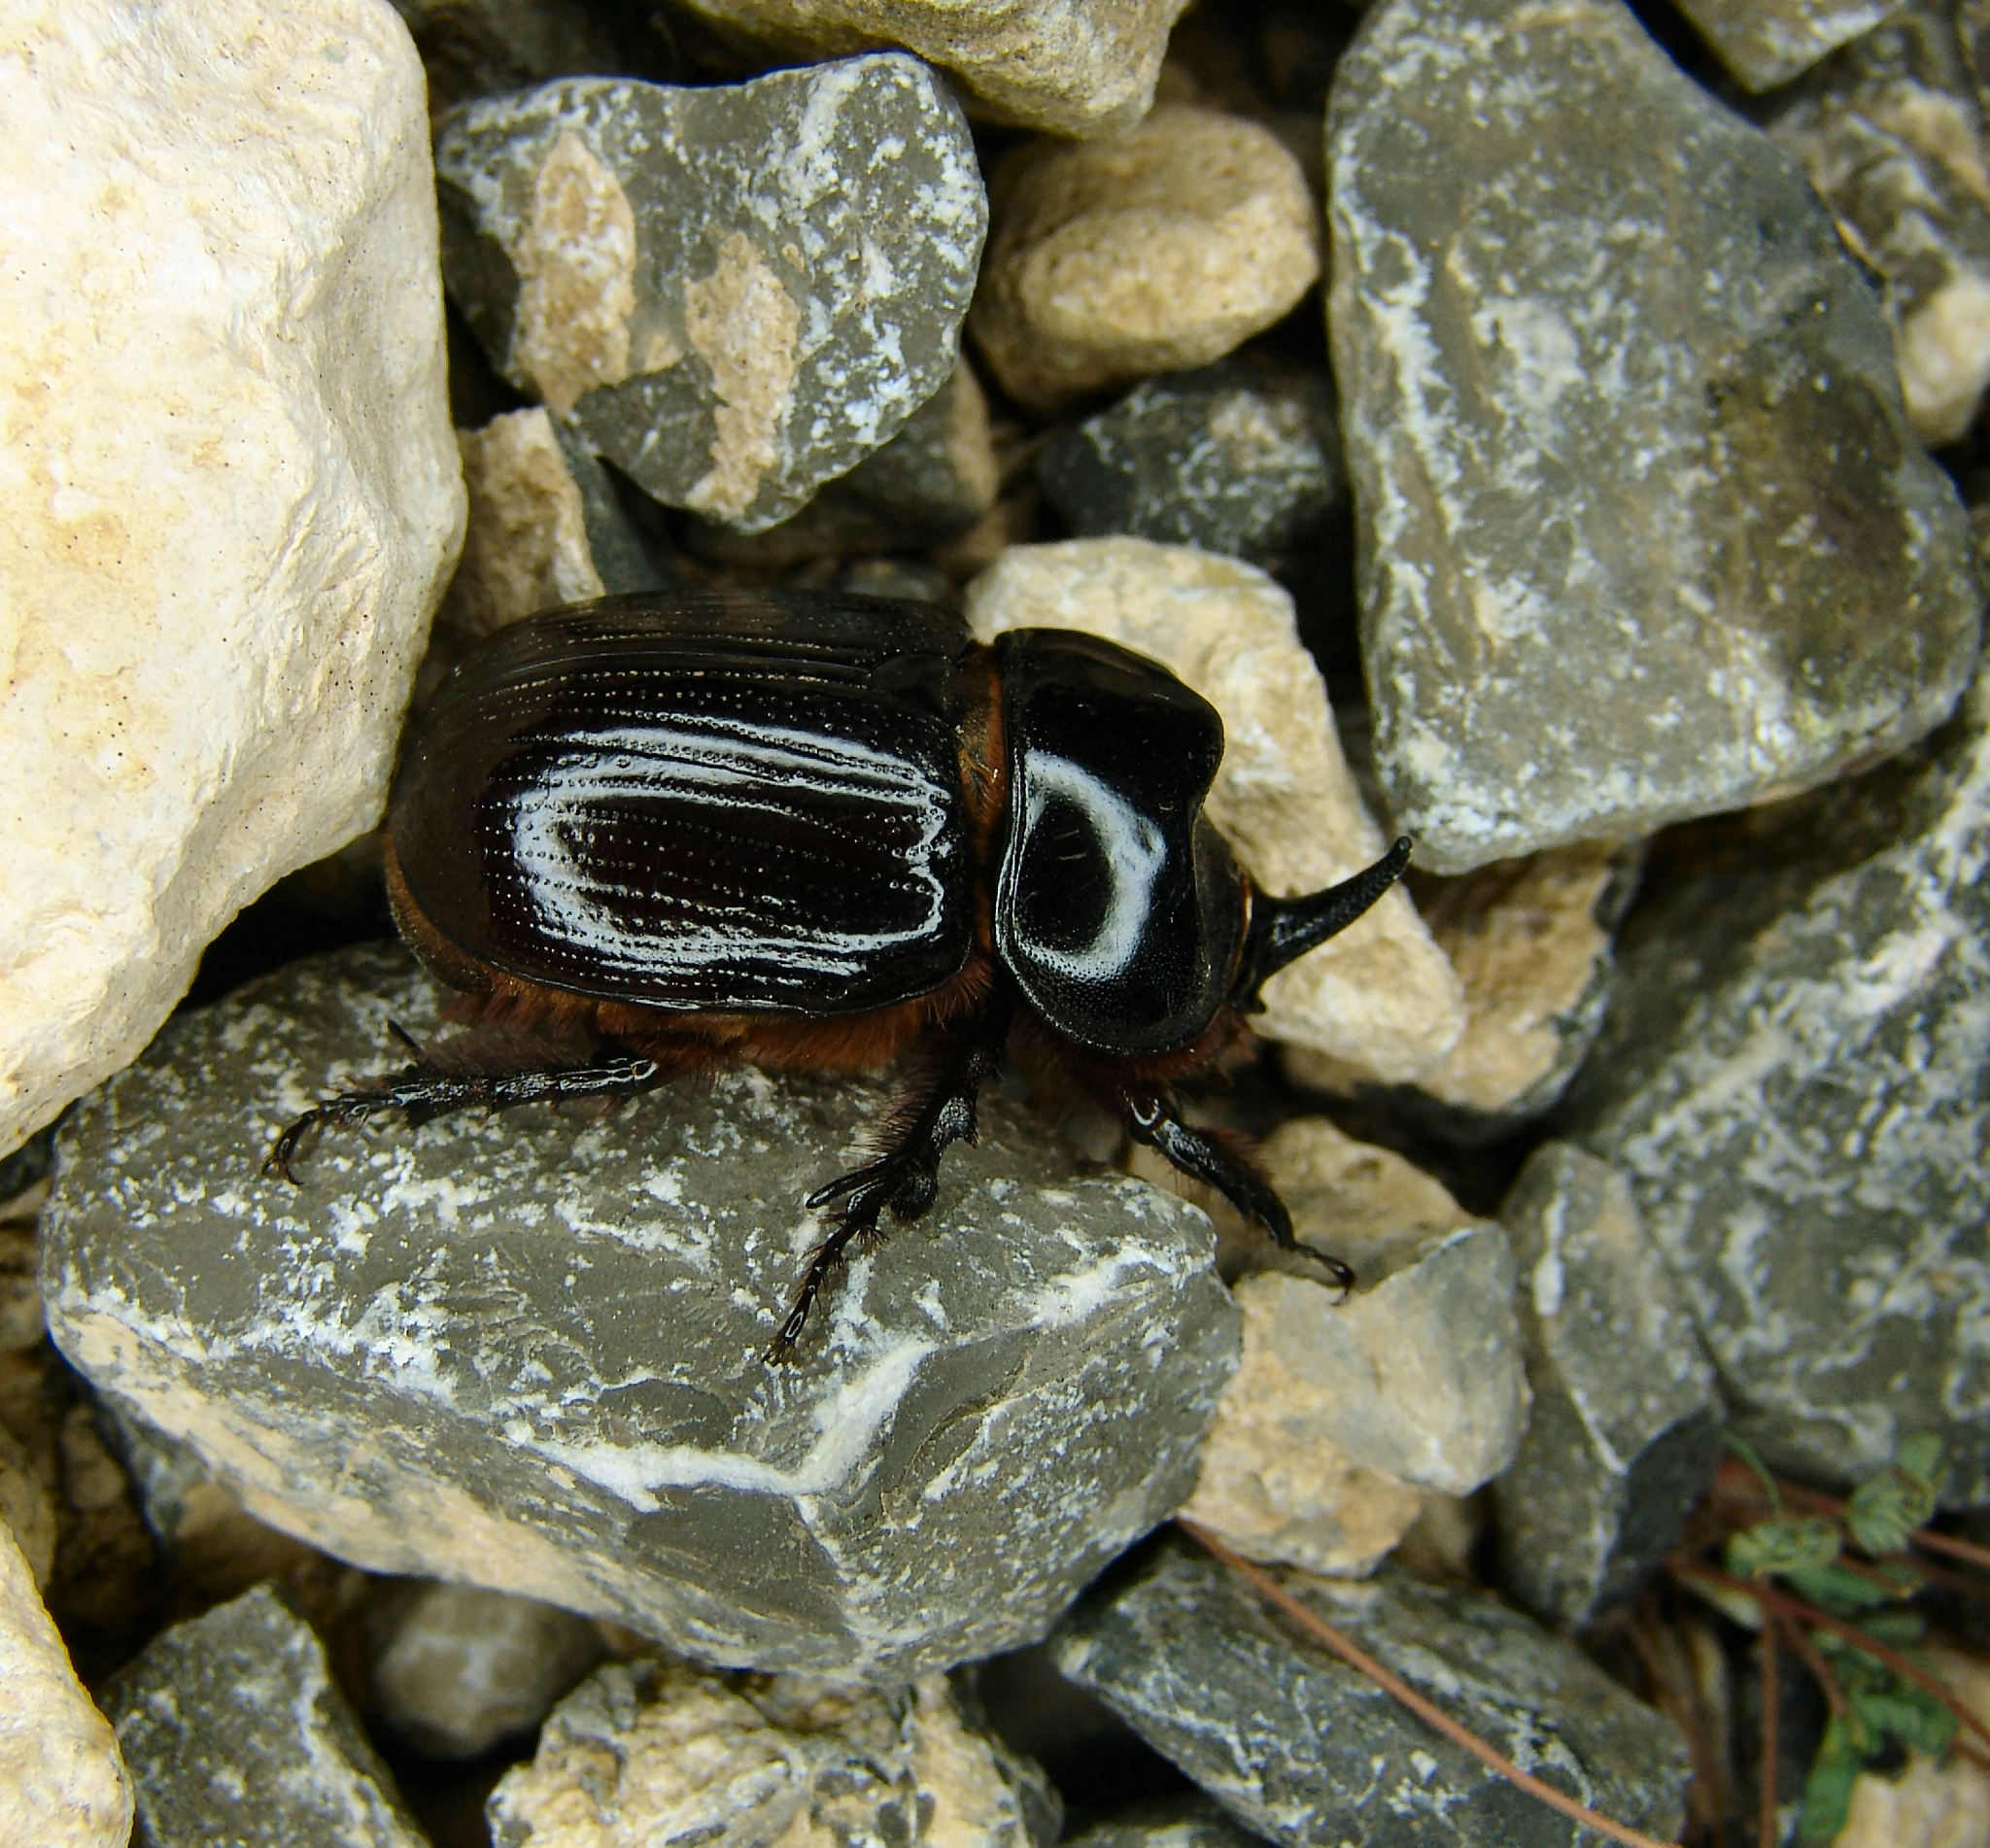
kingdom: Animalia
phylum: Arthropoda
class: Insecta
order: Coleoptera
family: Scarabaeidae
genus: Xyloryctes
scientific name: Xyloryctes thestalus
